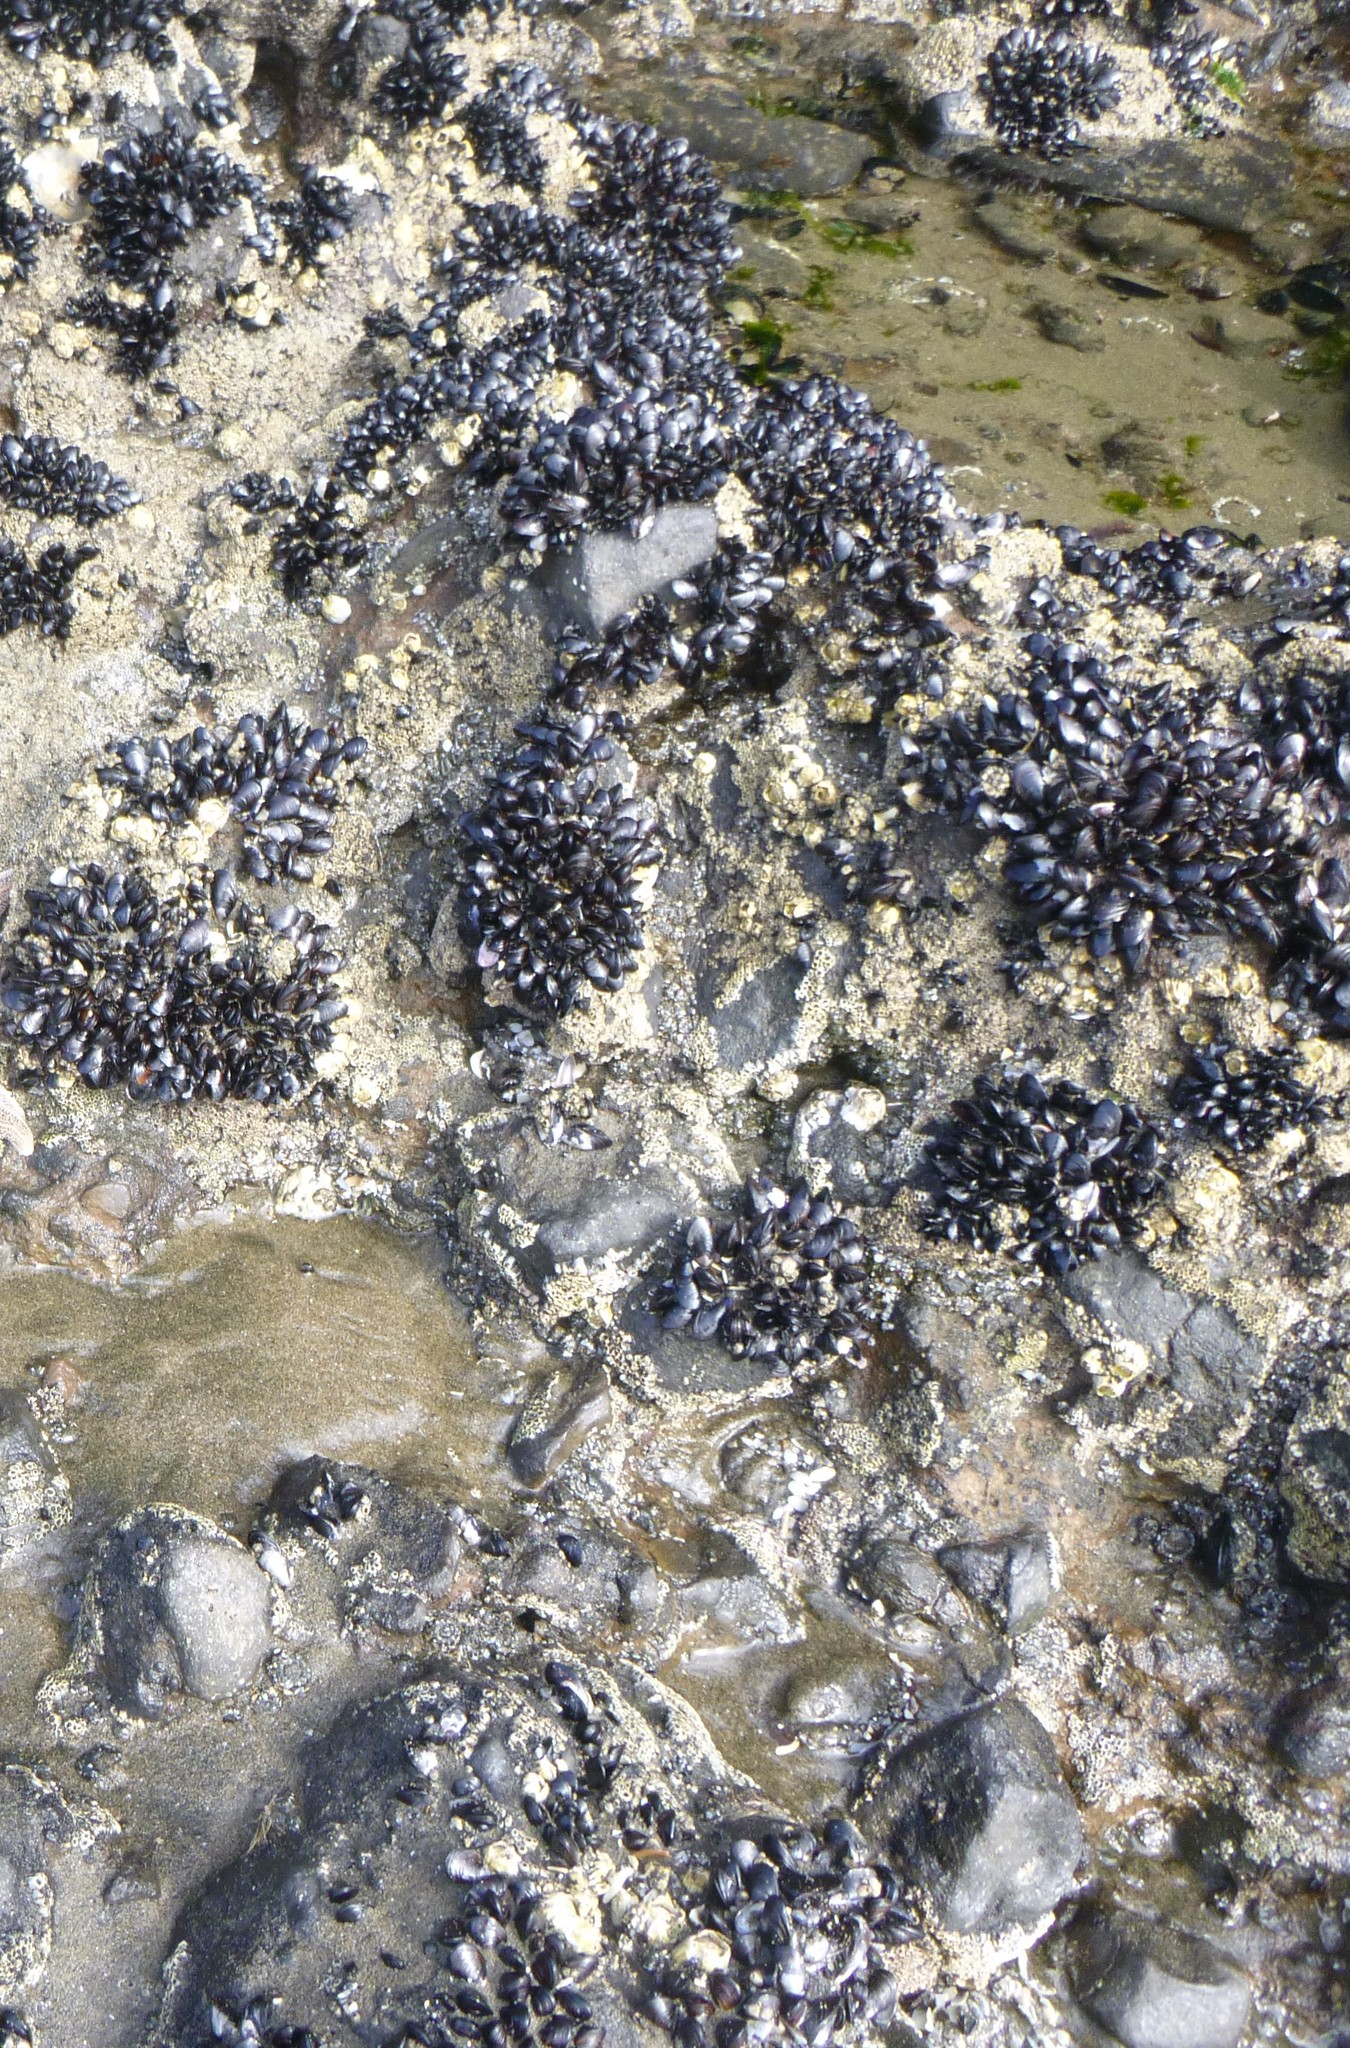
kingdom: Animalia
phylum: Mollusca
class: Bivalvia
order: Mytilida
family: Mytilidae
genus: Xenostrobus
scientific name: Xenostrobus neozelanicus
